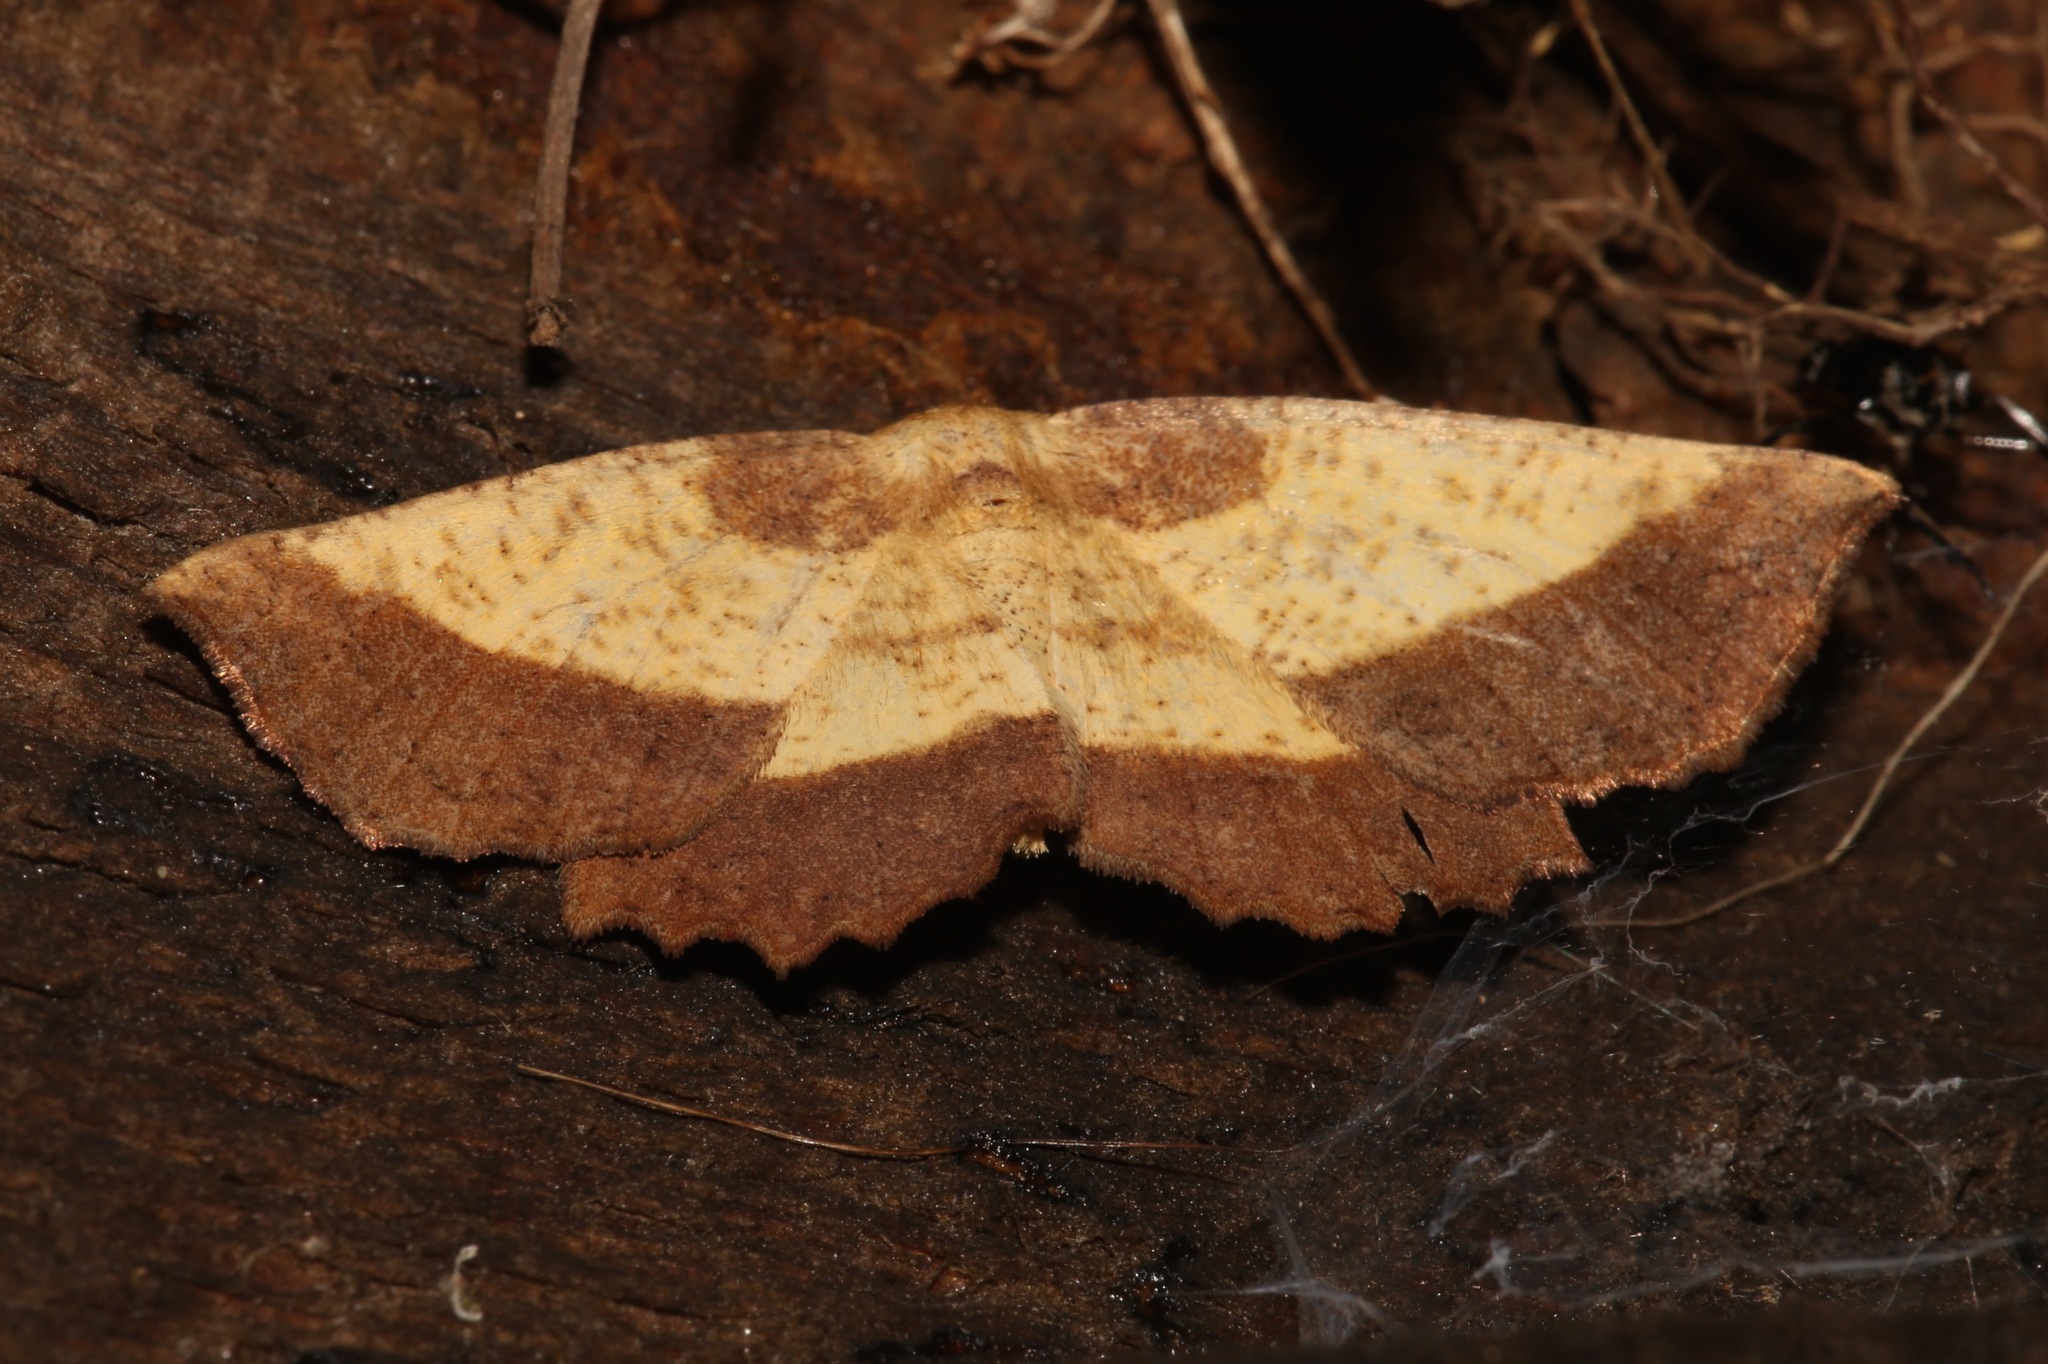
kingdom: Animalia
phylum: Arthropoda
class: Insecta
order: Lepidoptera
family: Geometridae
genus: Euchlaena
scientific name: Euchlaena serrata
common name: Saw wing
